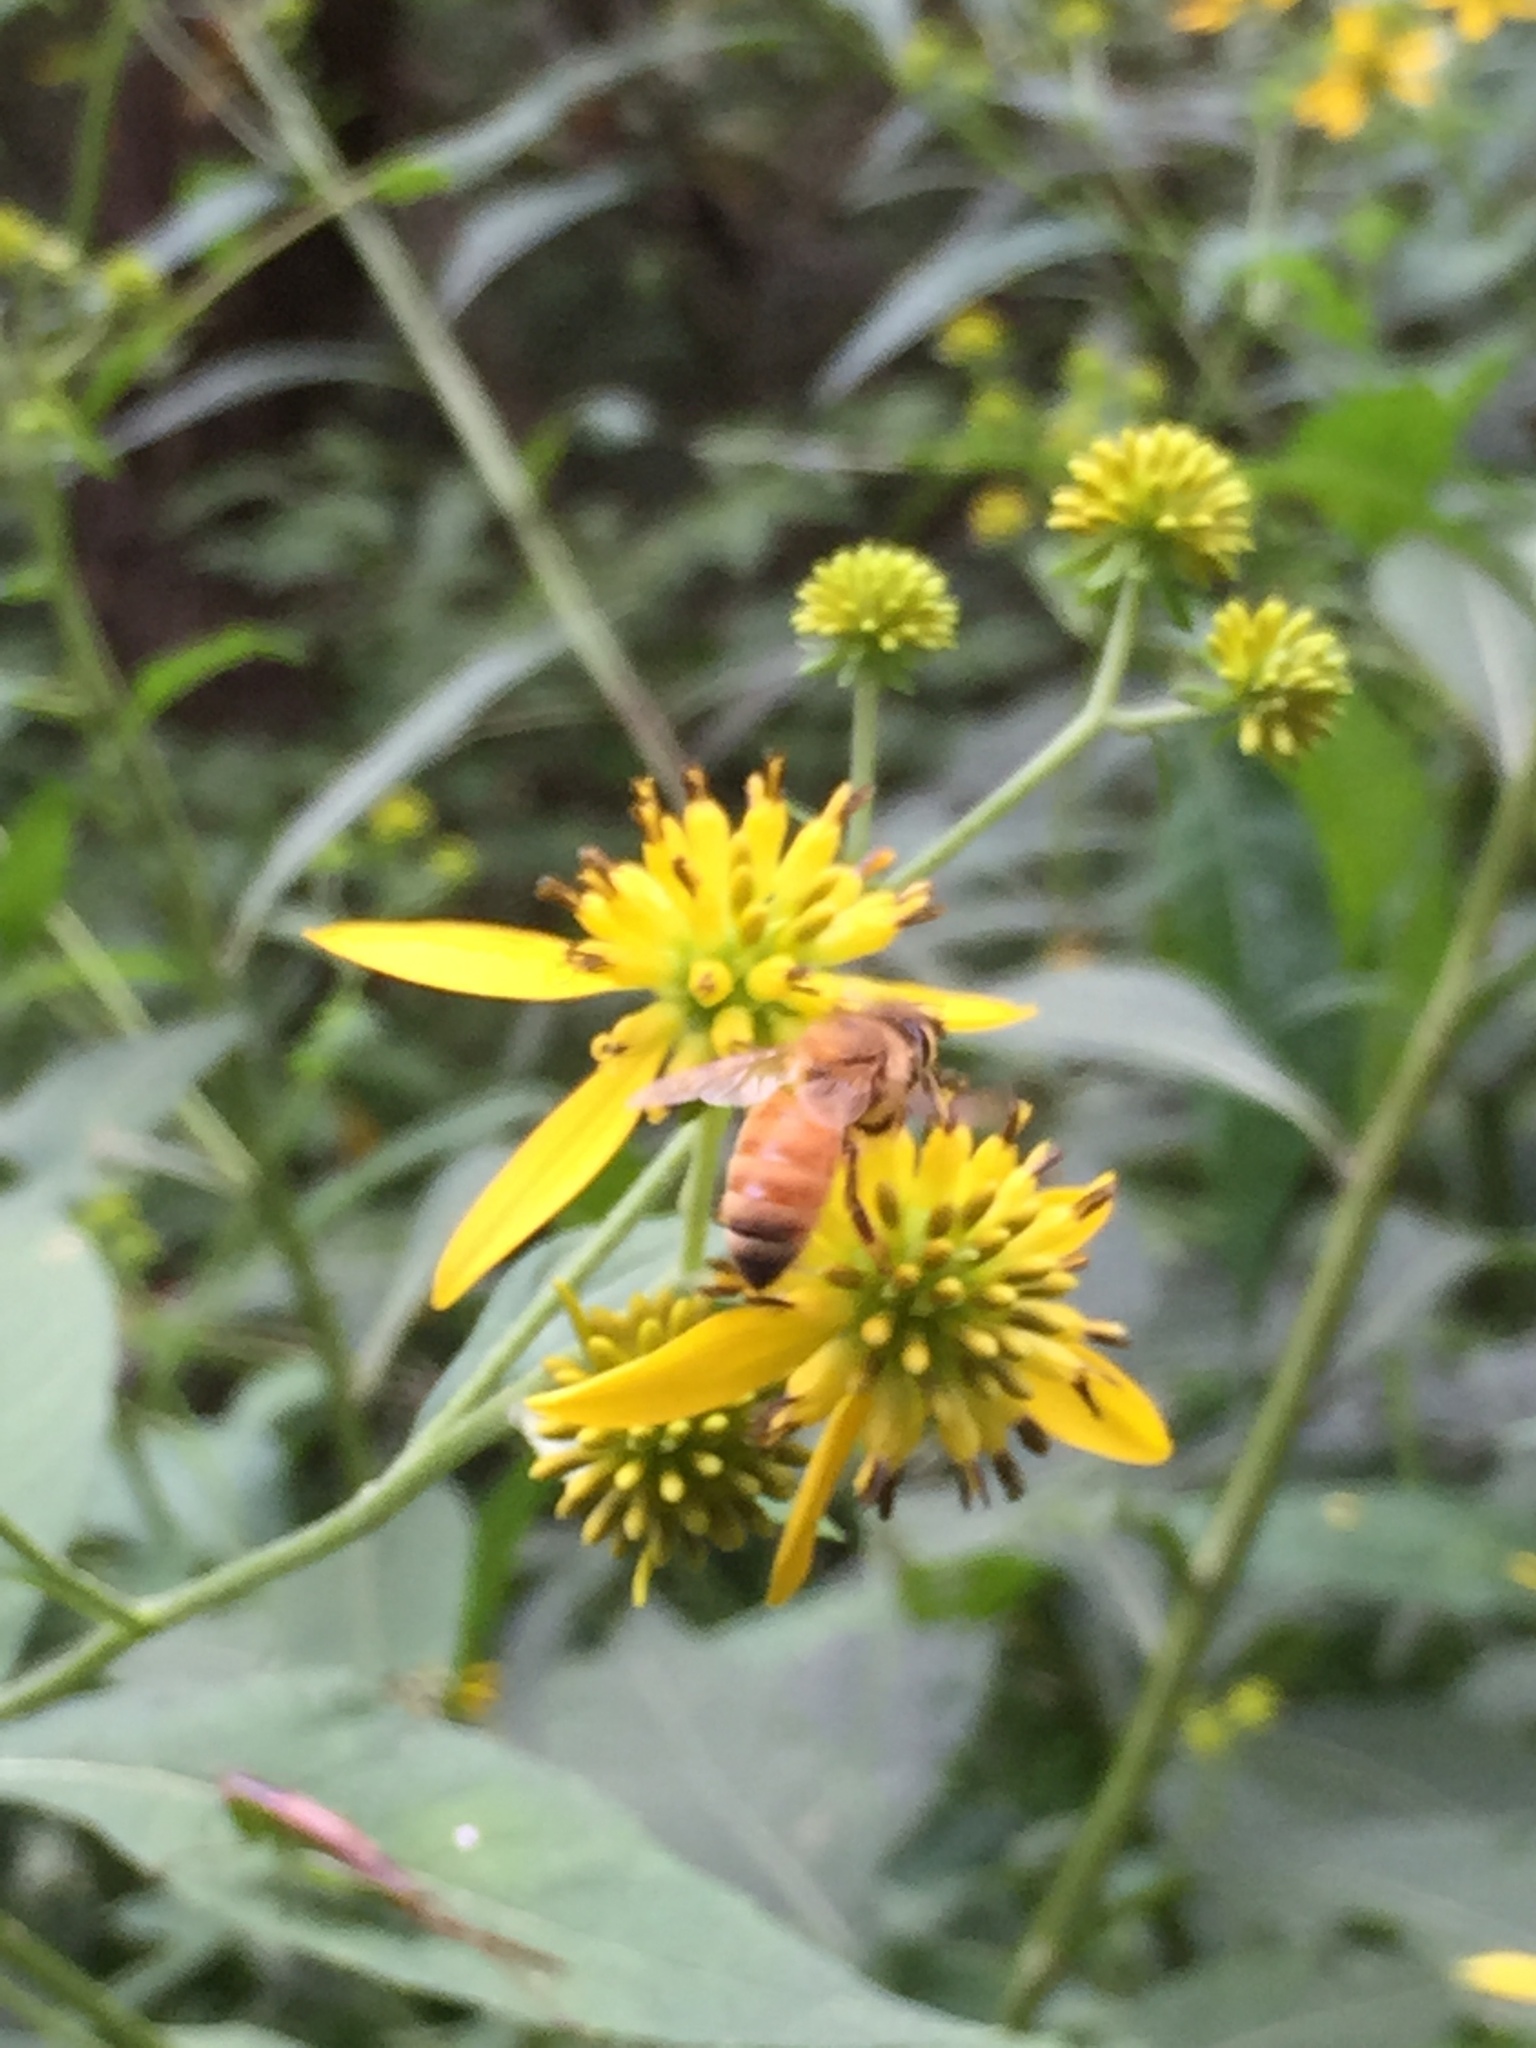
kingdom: Animalia
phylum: Arthropoda
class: Insecta
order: Hymenoptera
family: Apidae
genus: Apis
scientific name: Apis mellifera
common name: Honey bee
